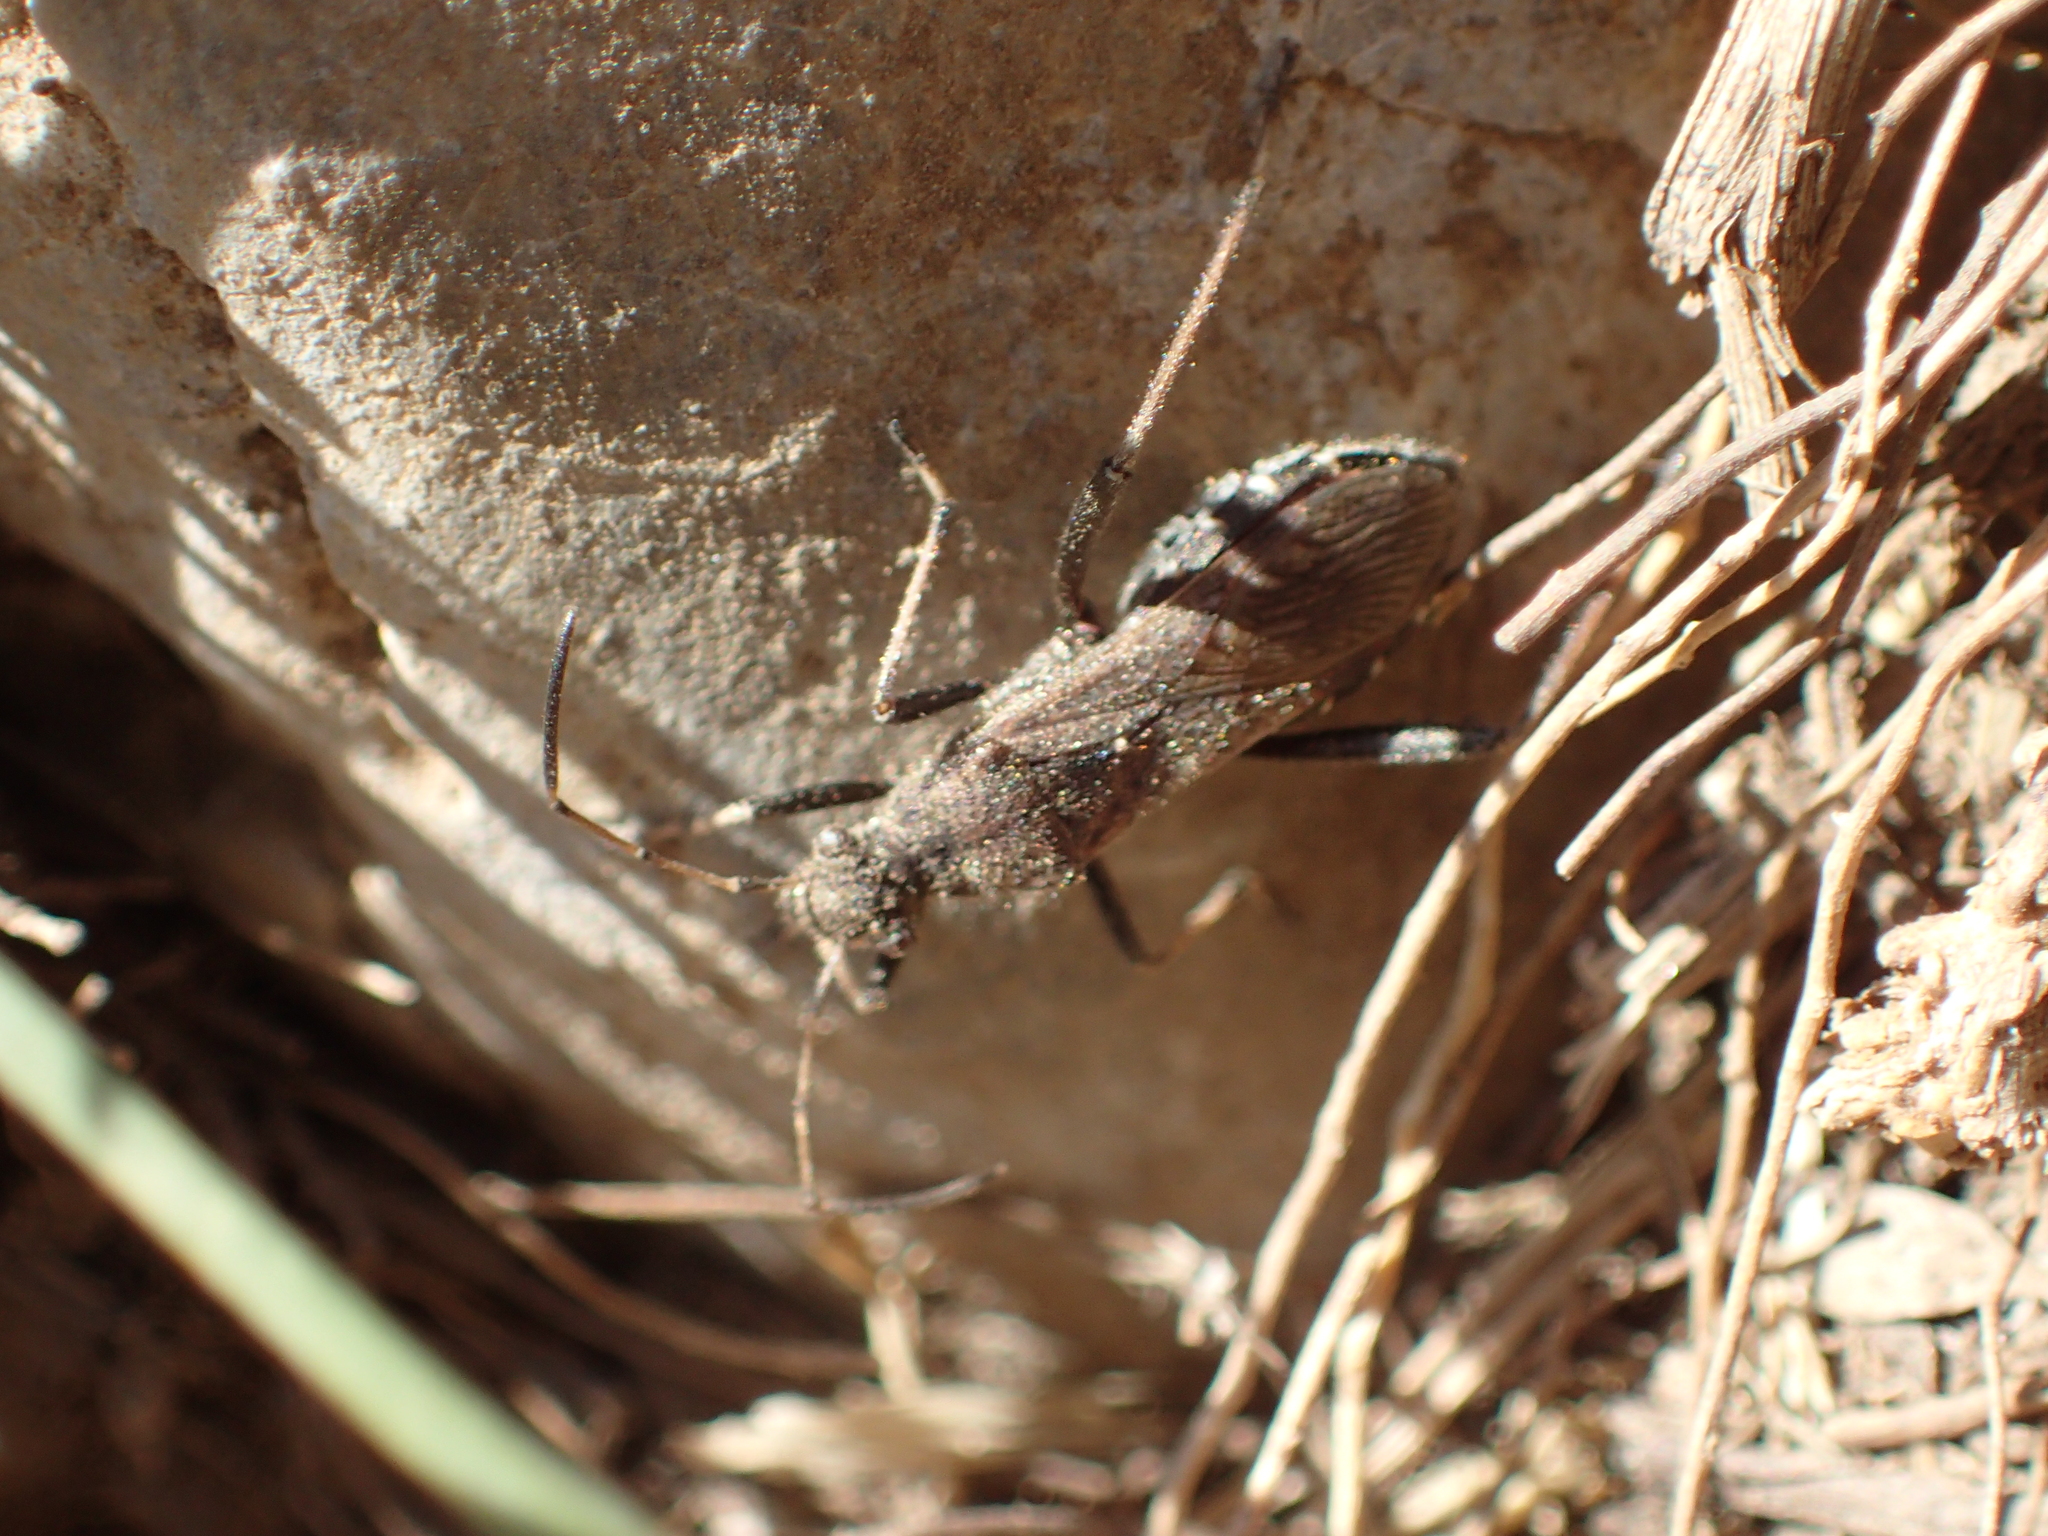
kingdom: Animalia
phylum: Arthropoda
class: Insecta
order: Hemiptera
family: Alydidae
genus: Alydus
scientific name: Alydus calcaratus
